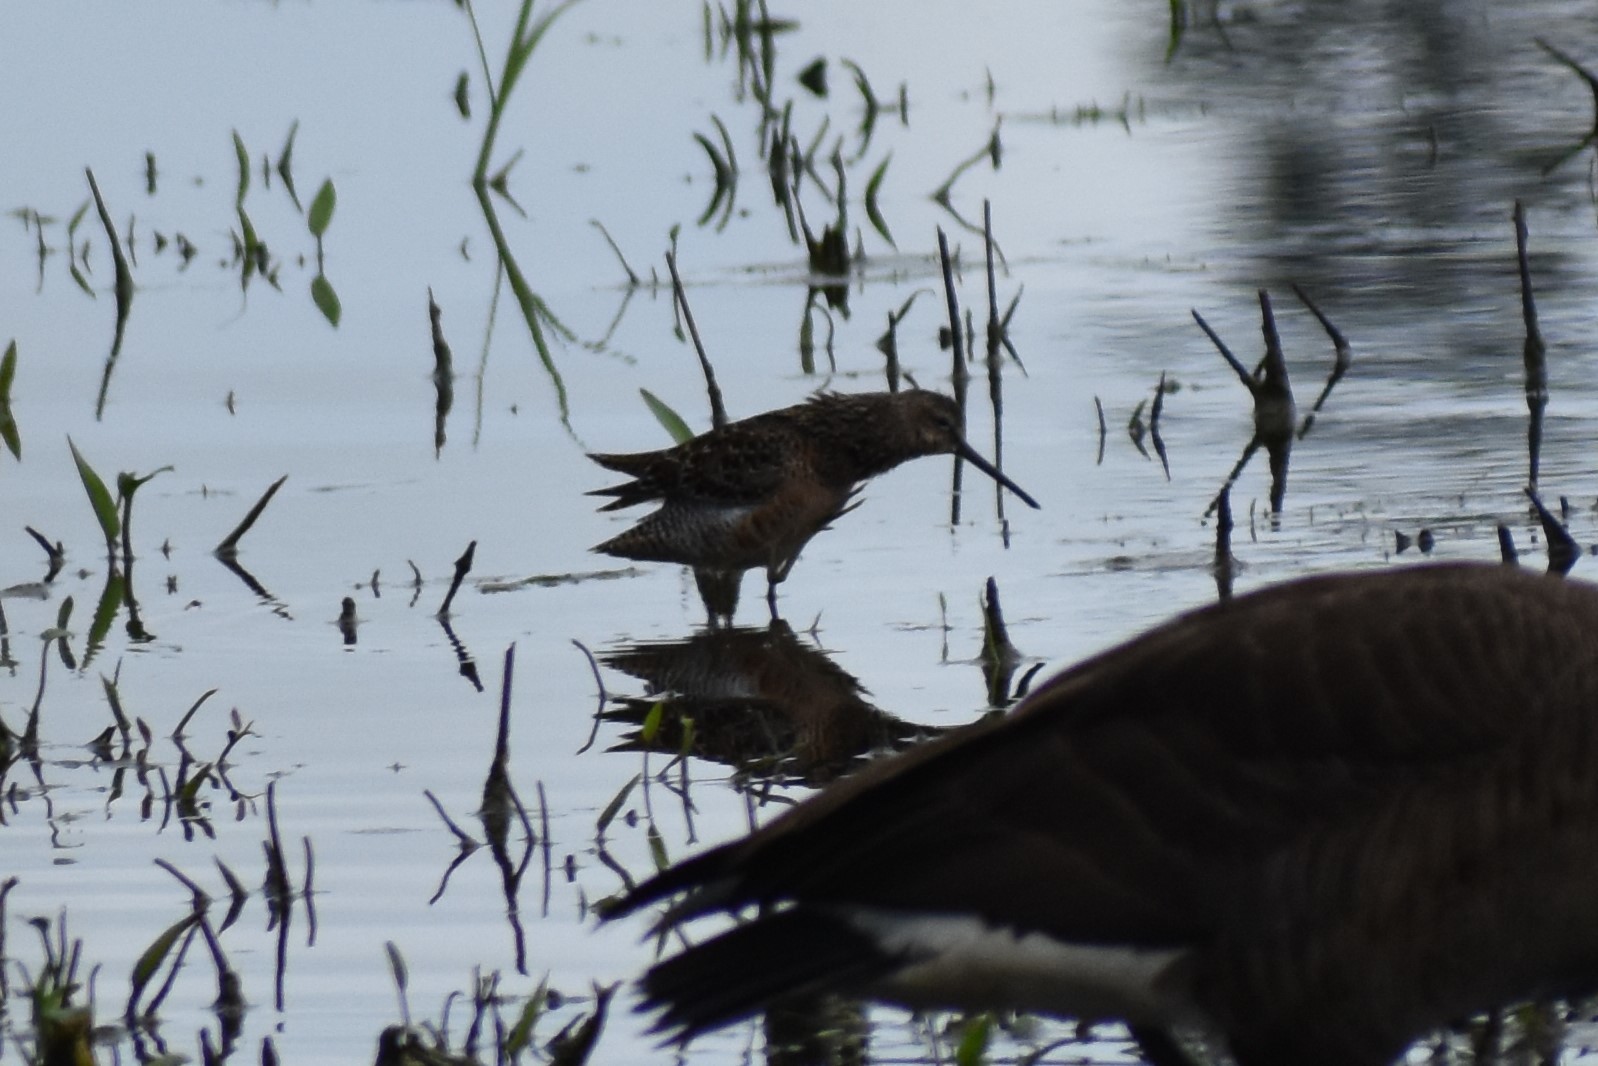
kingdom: Animalia
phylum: Chordata
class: Aves
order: Charadriiformes
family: Scolopacidae
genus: Limnodromus
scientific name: Limnodromus scolopaceus
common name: Long-billed dowitcher
